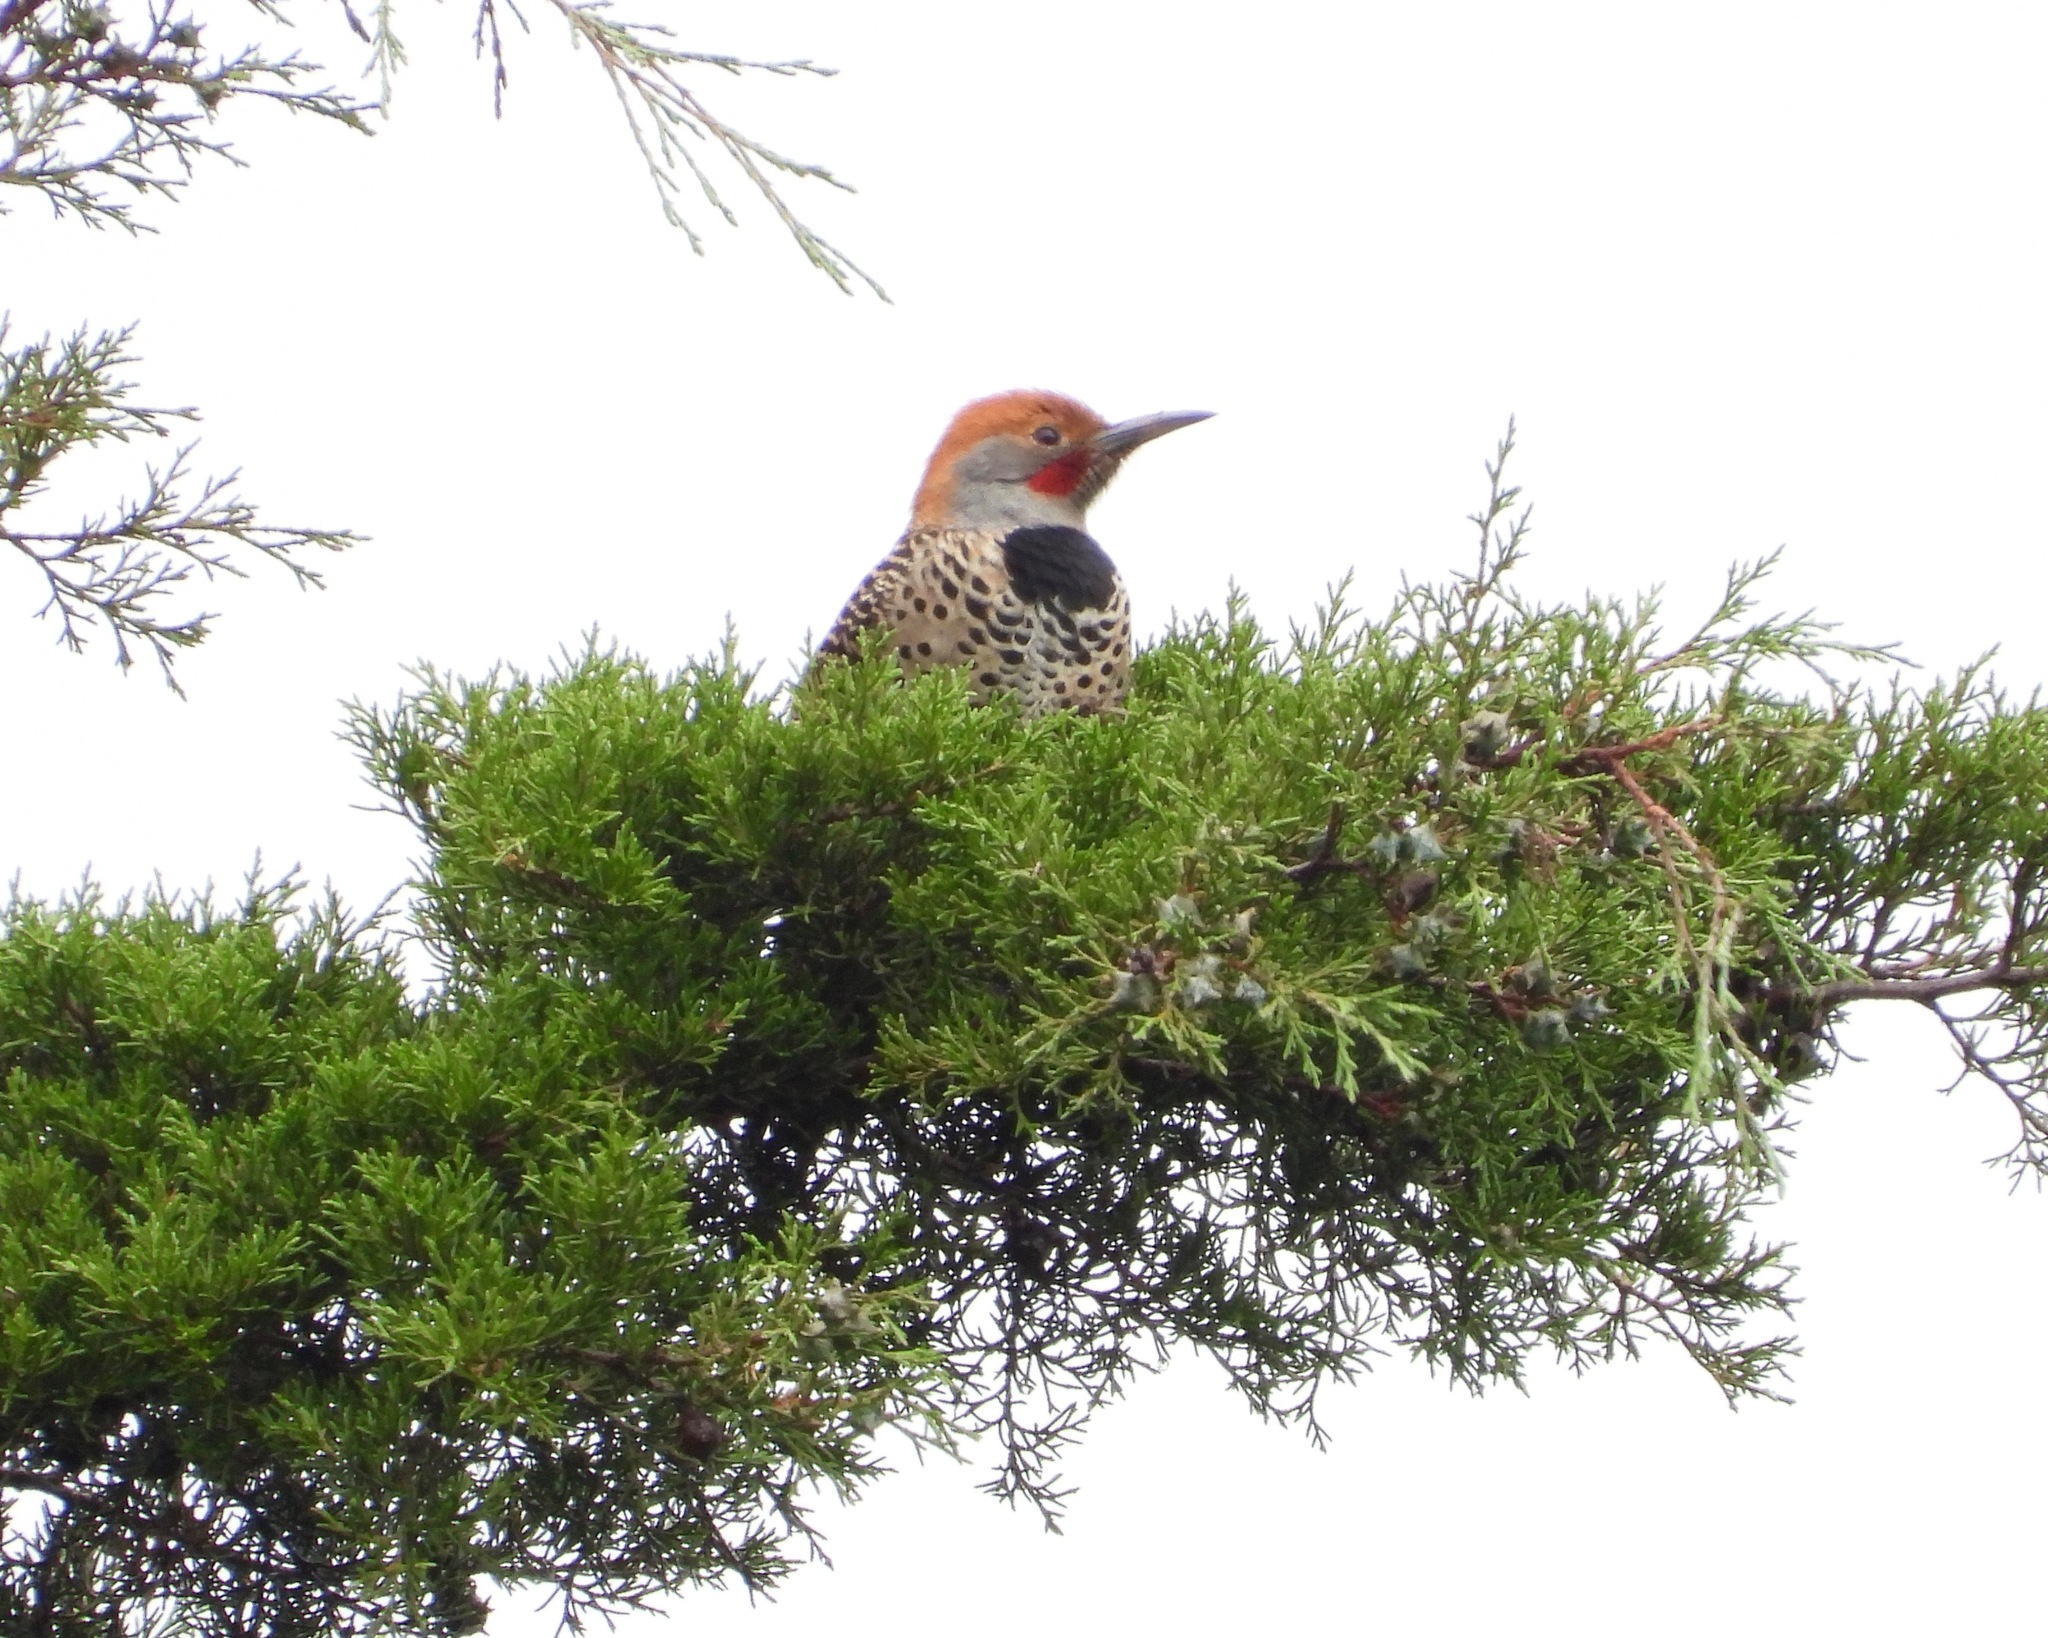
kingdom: Animalia
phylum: Chordata
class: Aves
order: Piciformes
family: Picidae
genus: Colaptes
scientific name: Colaptes auratus
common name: Northern flicker
